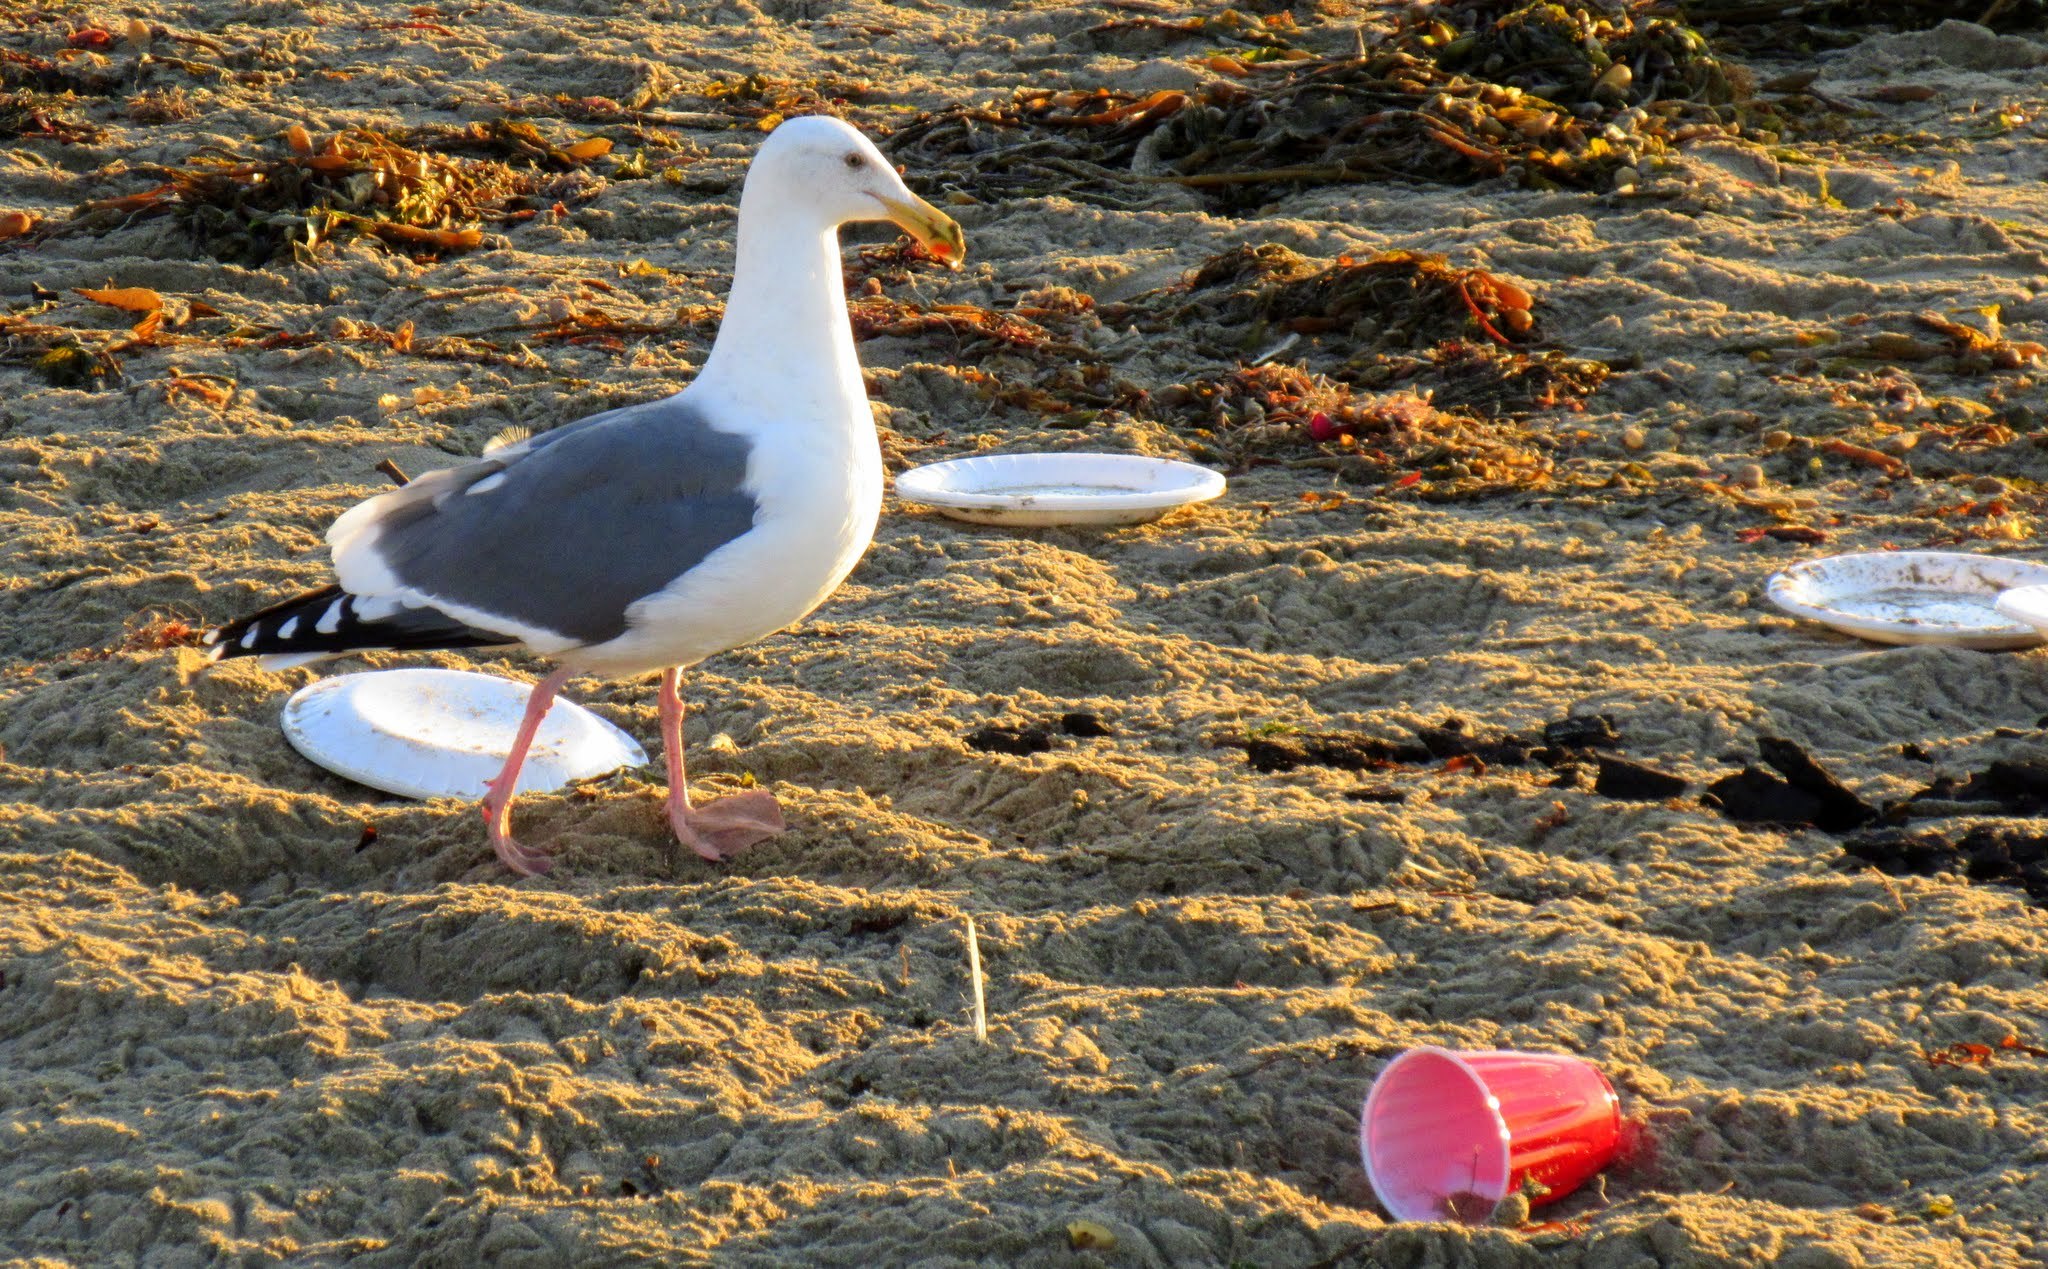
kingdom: Animalia
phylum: Chordata
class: Aves
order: Charadriiformes
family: Laridae
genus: Larus
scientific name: Larus occidentalis
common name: Western gull
